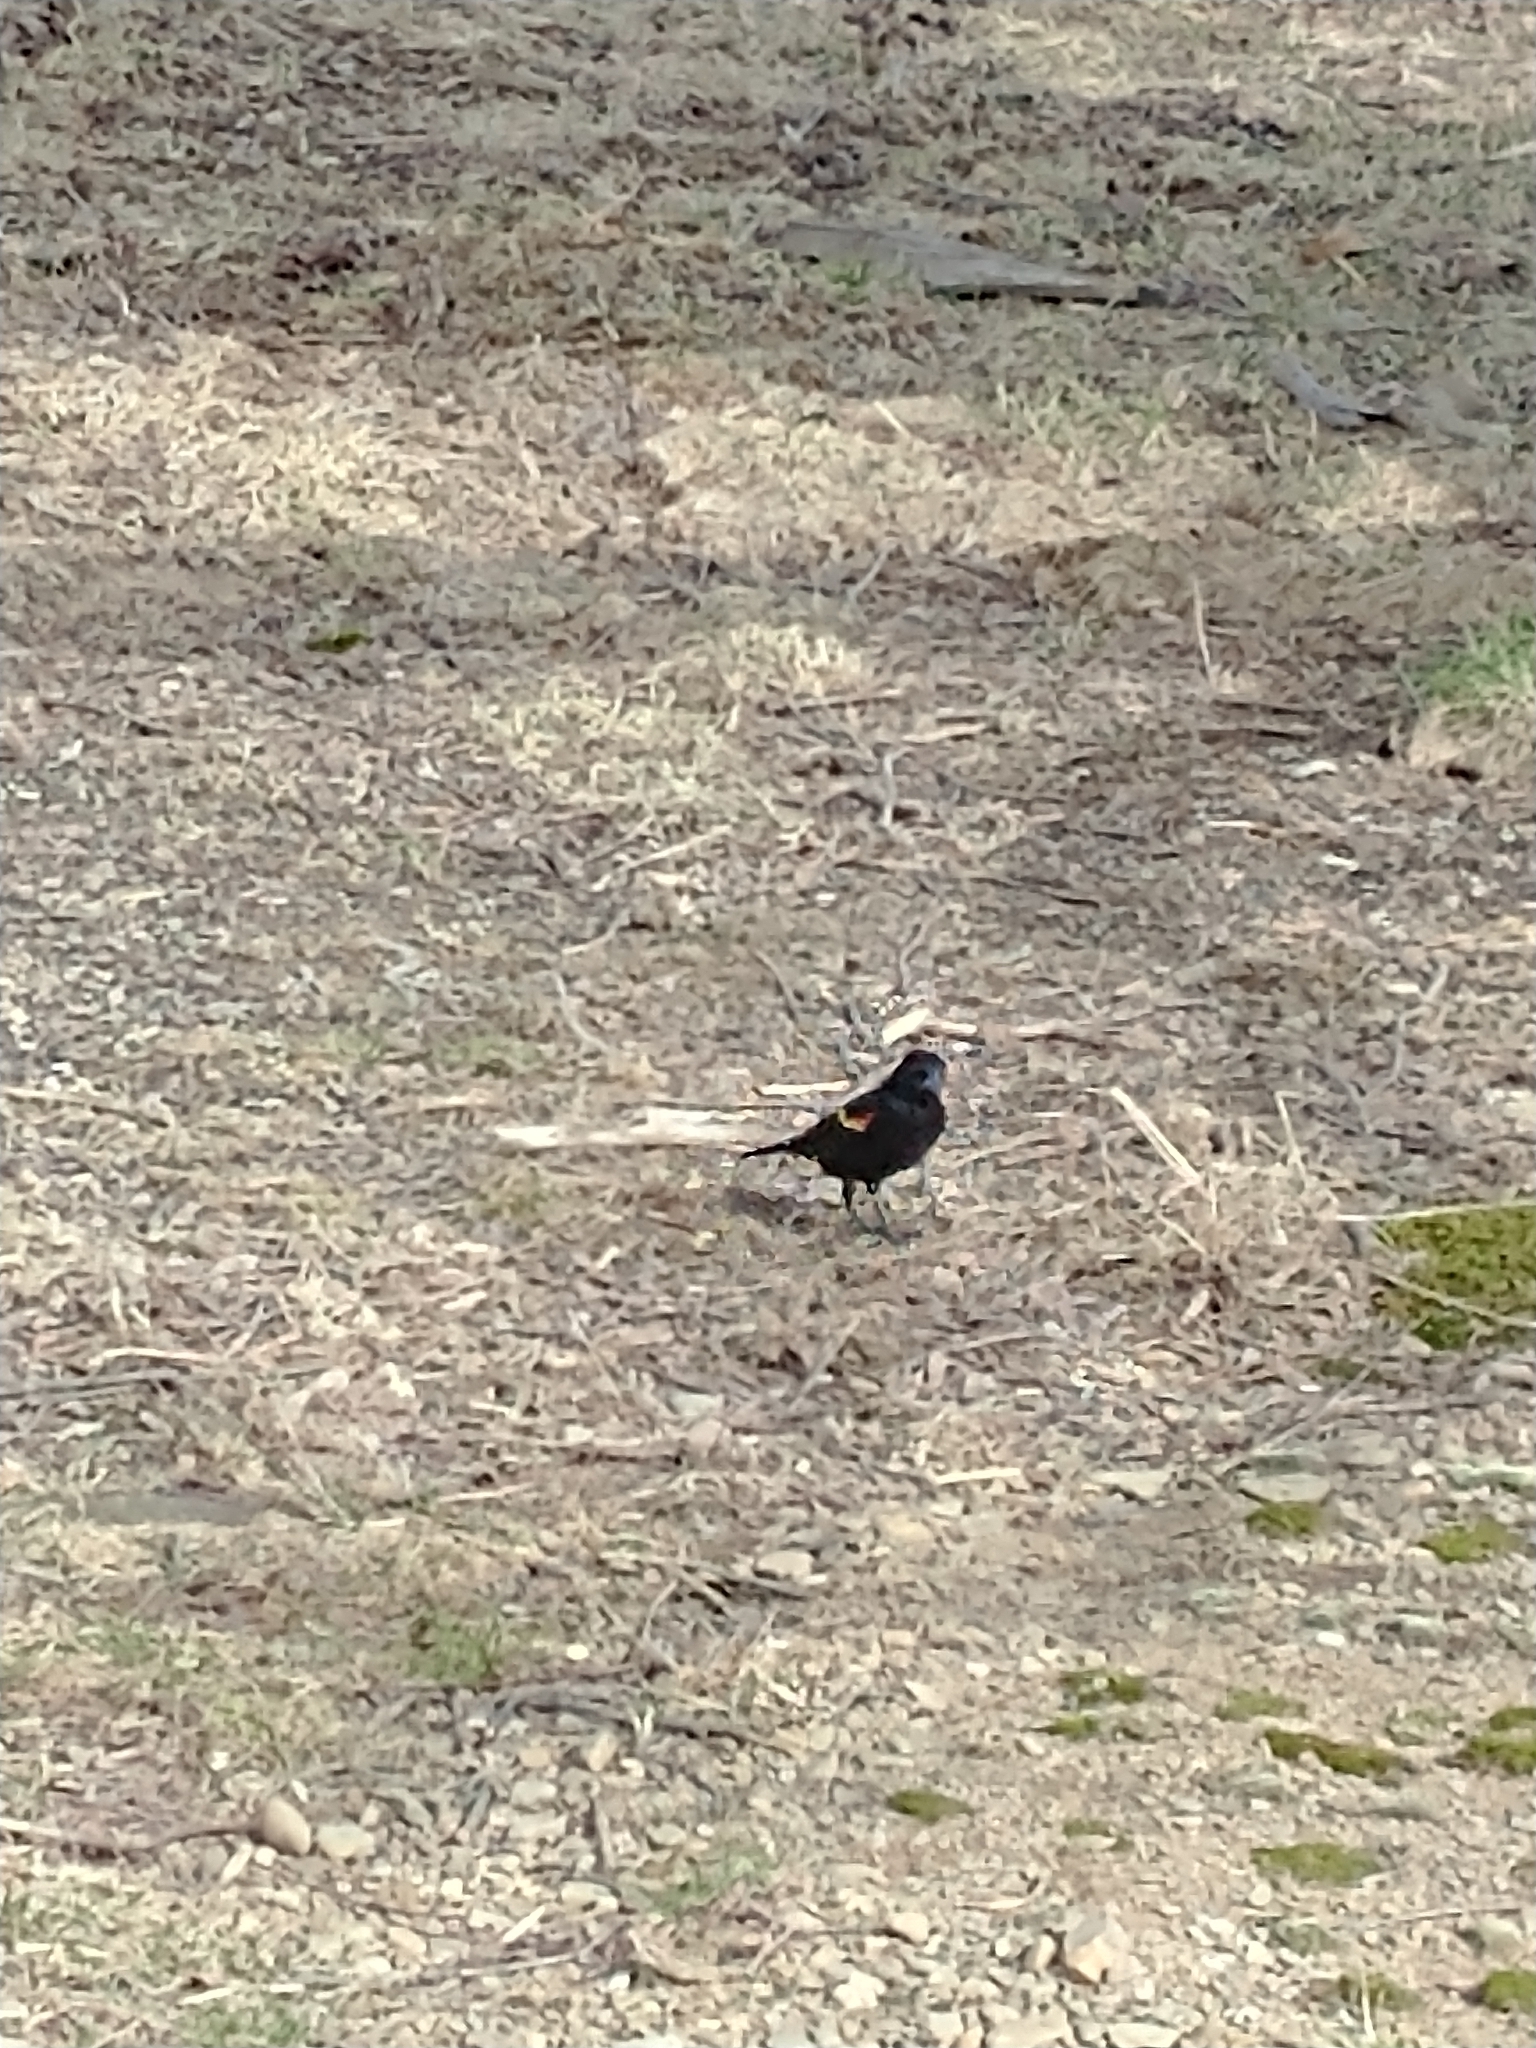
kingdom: Animalia
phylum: Chordata
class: Aves
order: Passeriformes
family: Icteridae
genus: Agelaius
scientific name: Agelaius phoeniceus
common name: Red-winged blackbird
